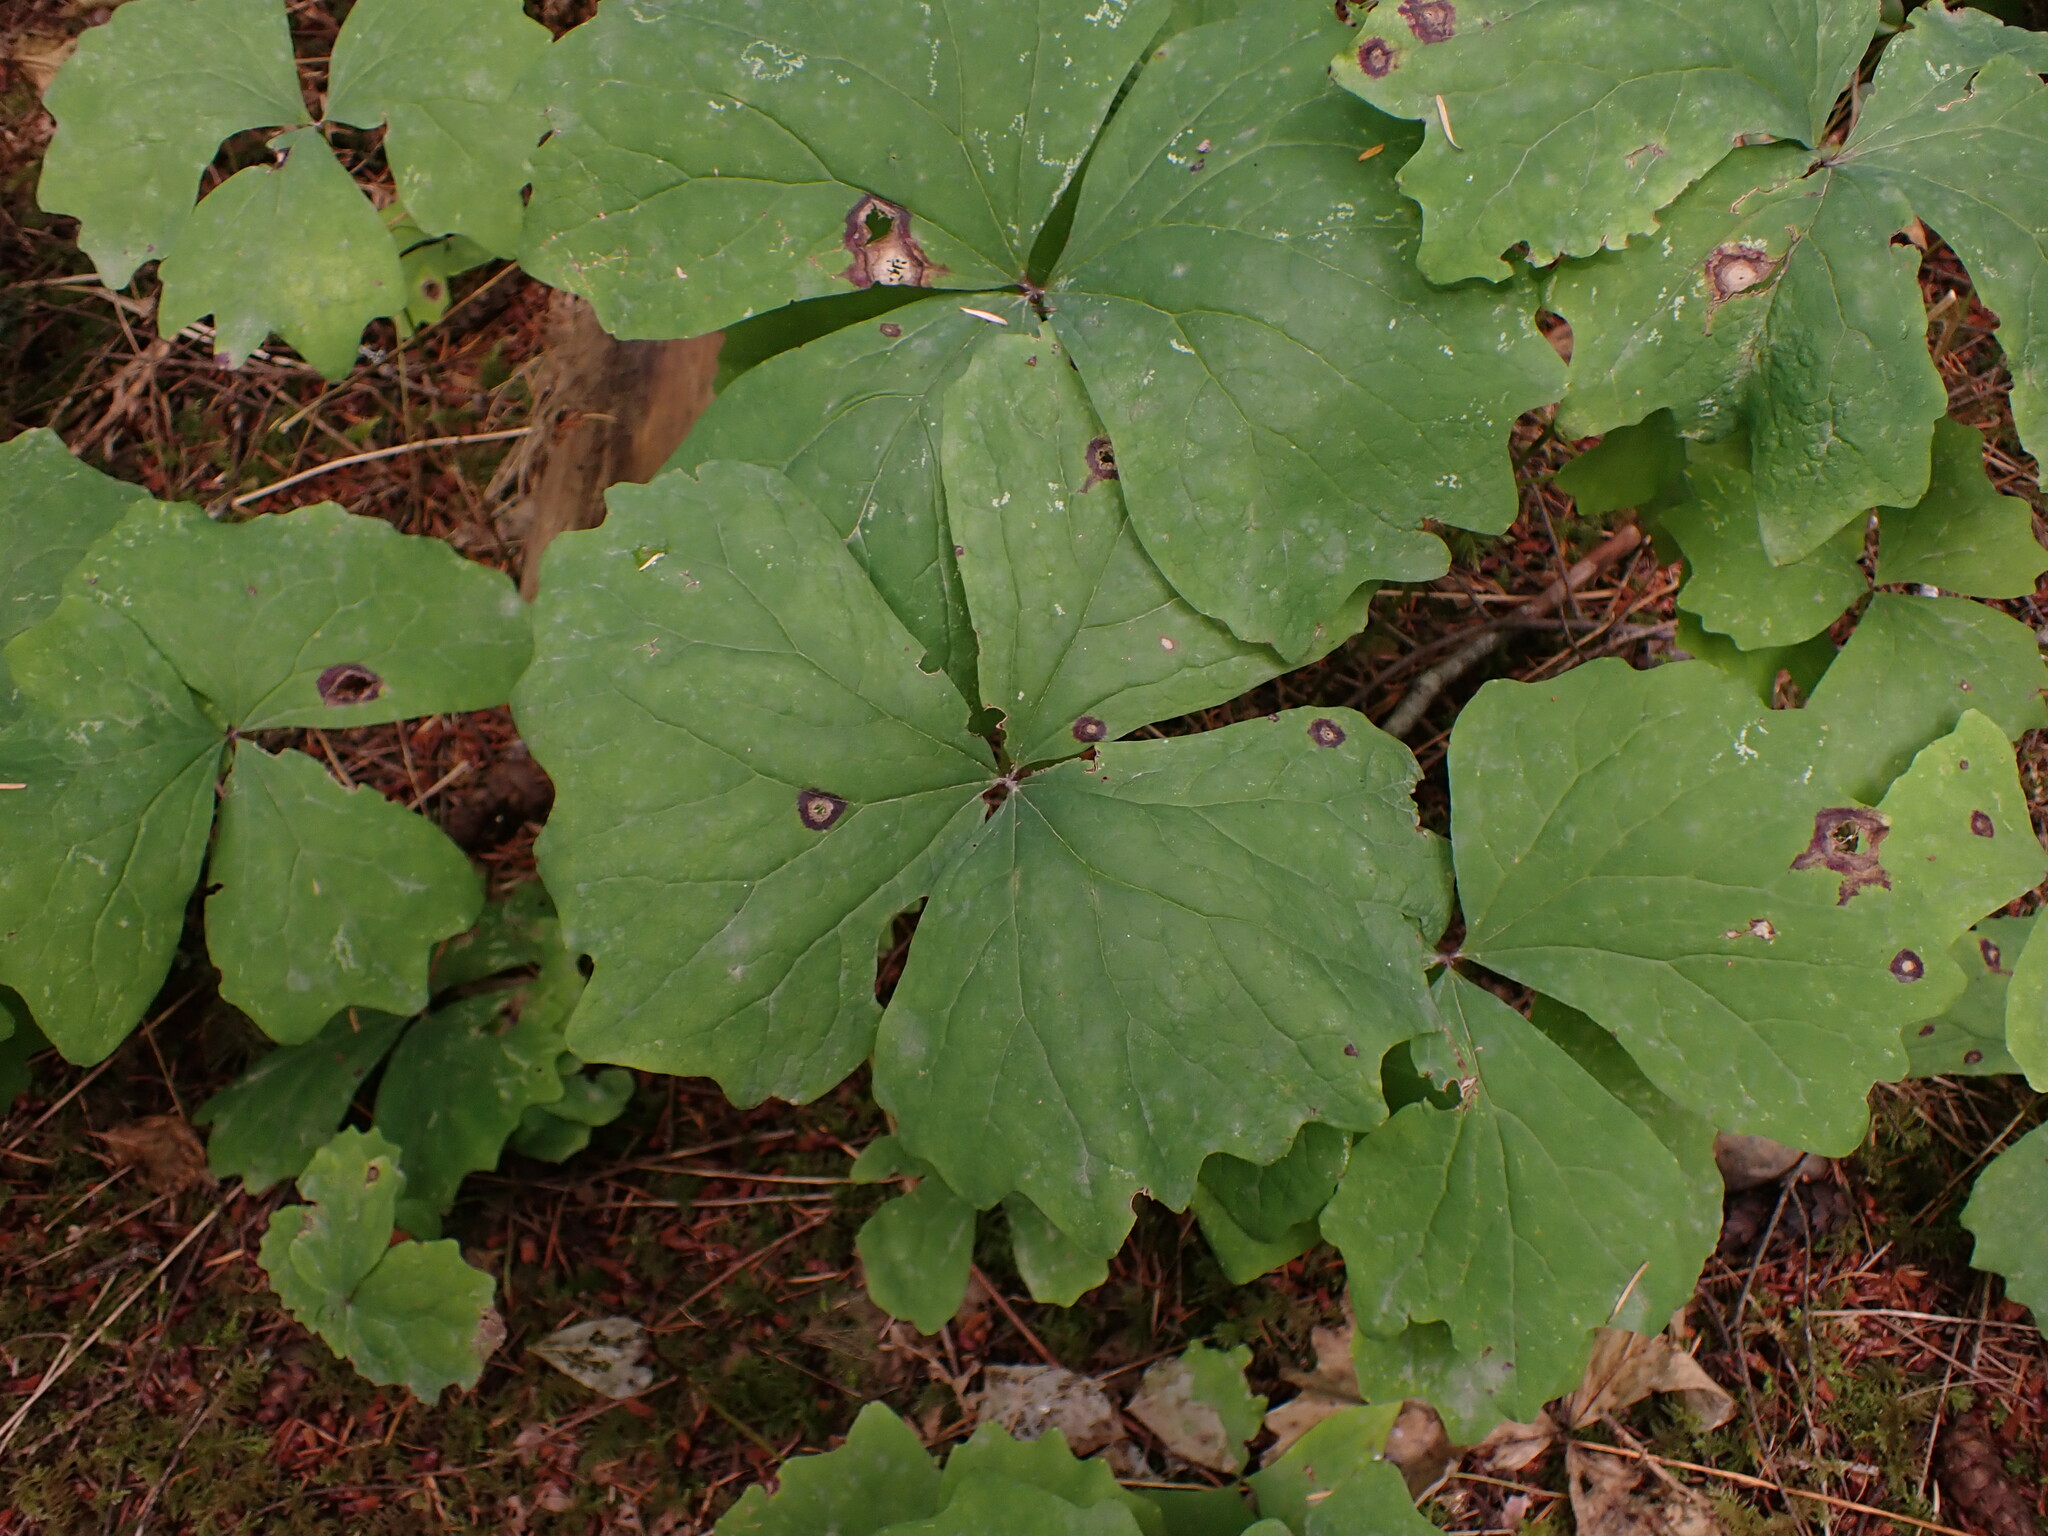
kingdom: Plantae
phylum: Tracheophyta
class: Magnoliopsida
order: Ranunculales
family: Berberidaceae
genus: Achlys
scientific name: Achlys triphylla
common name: Vanilla-leaf
